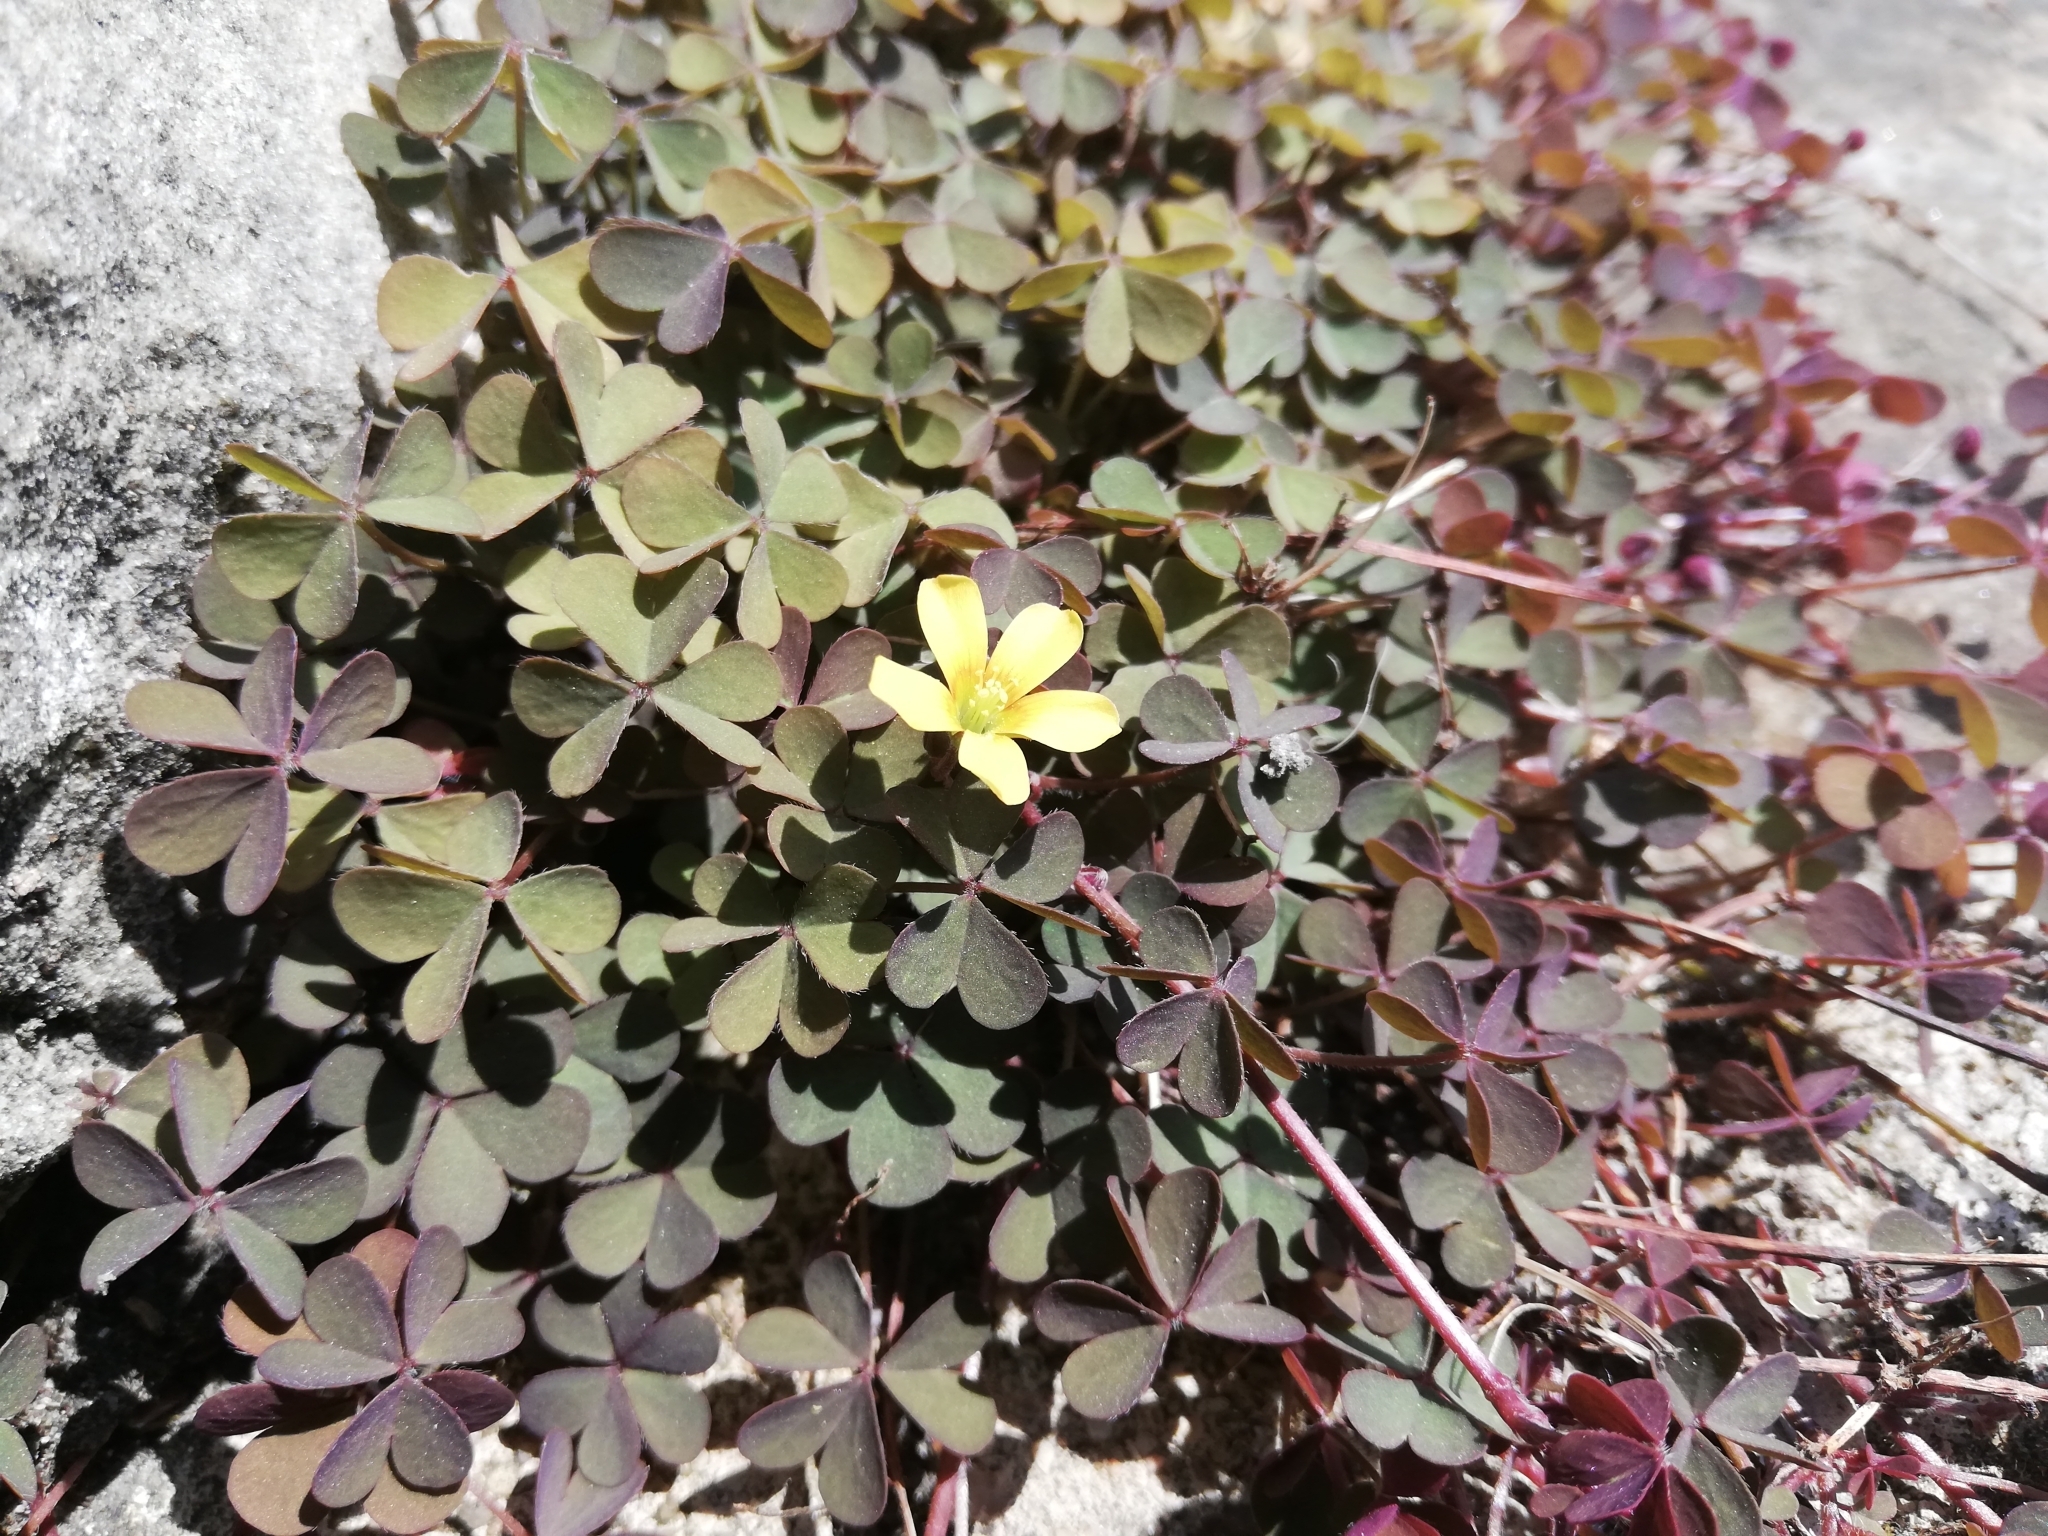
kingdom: Plantae
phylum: Tracheophyta
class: Magnoliopsida
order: Oxalidales
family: Oxalidaceae
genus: Oxalis
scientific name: Oxalis corniculata
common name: Procumbent yellow-sorrel
